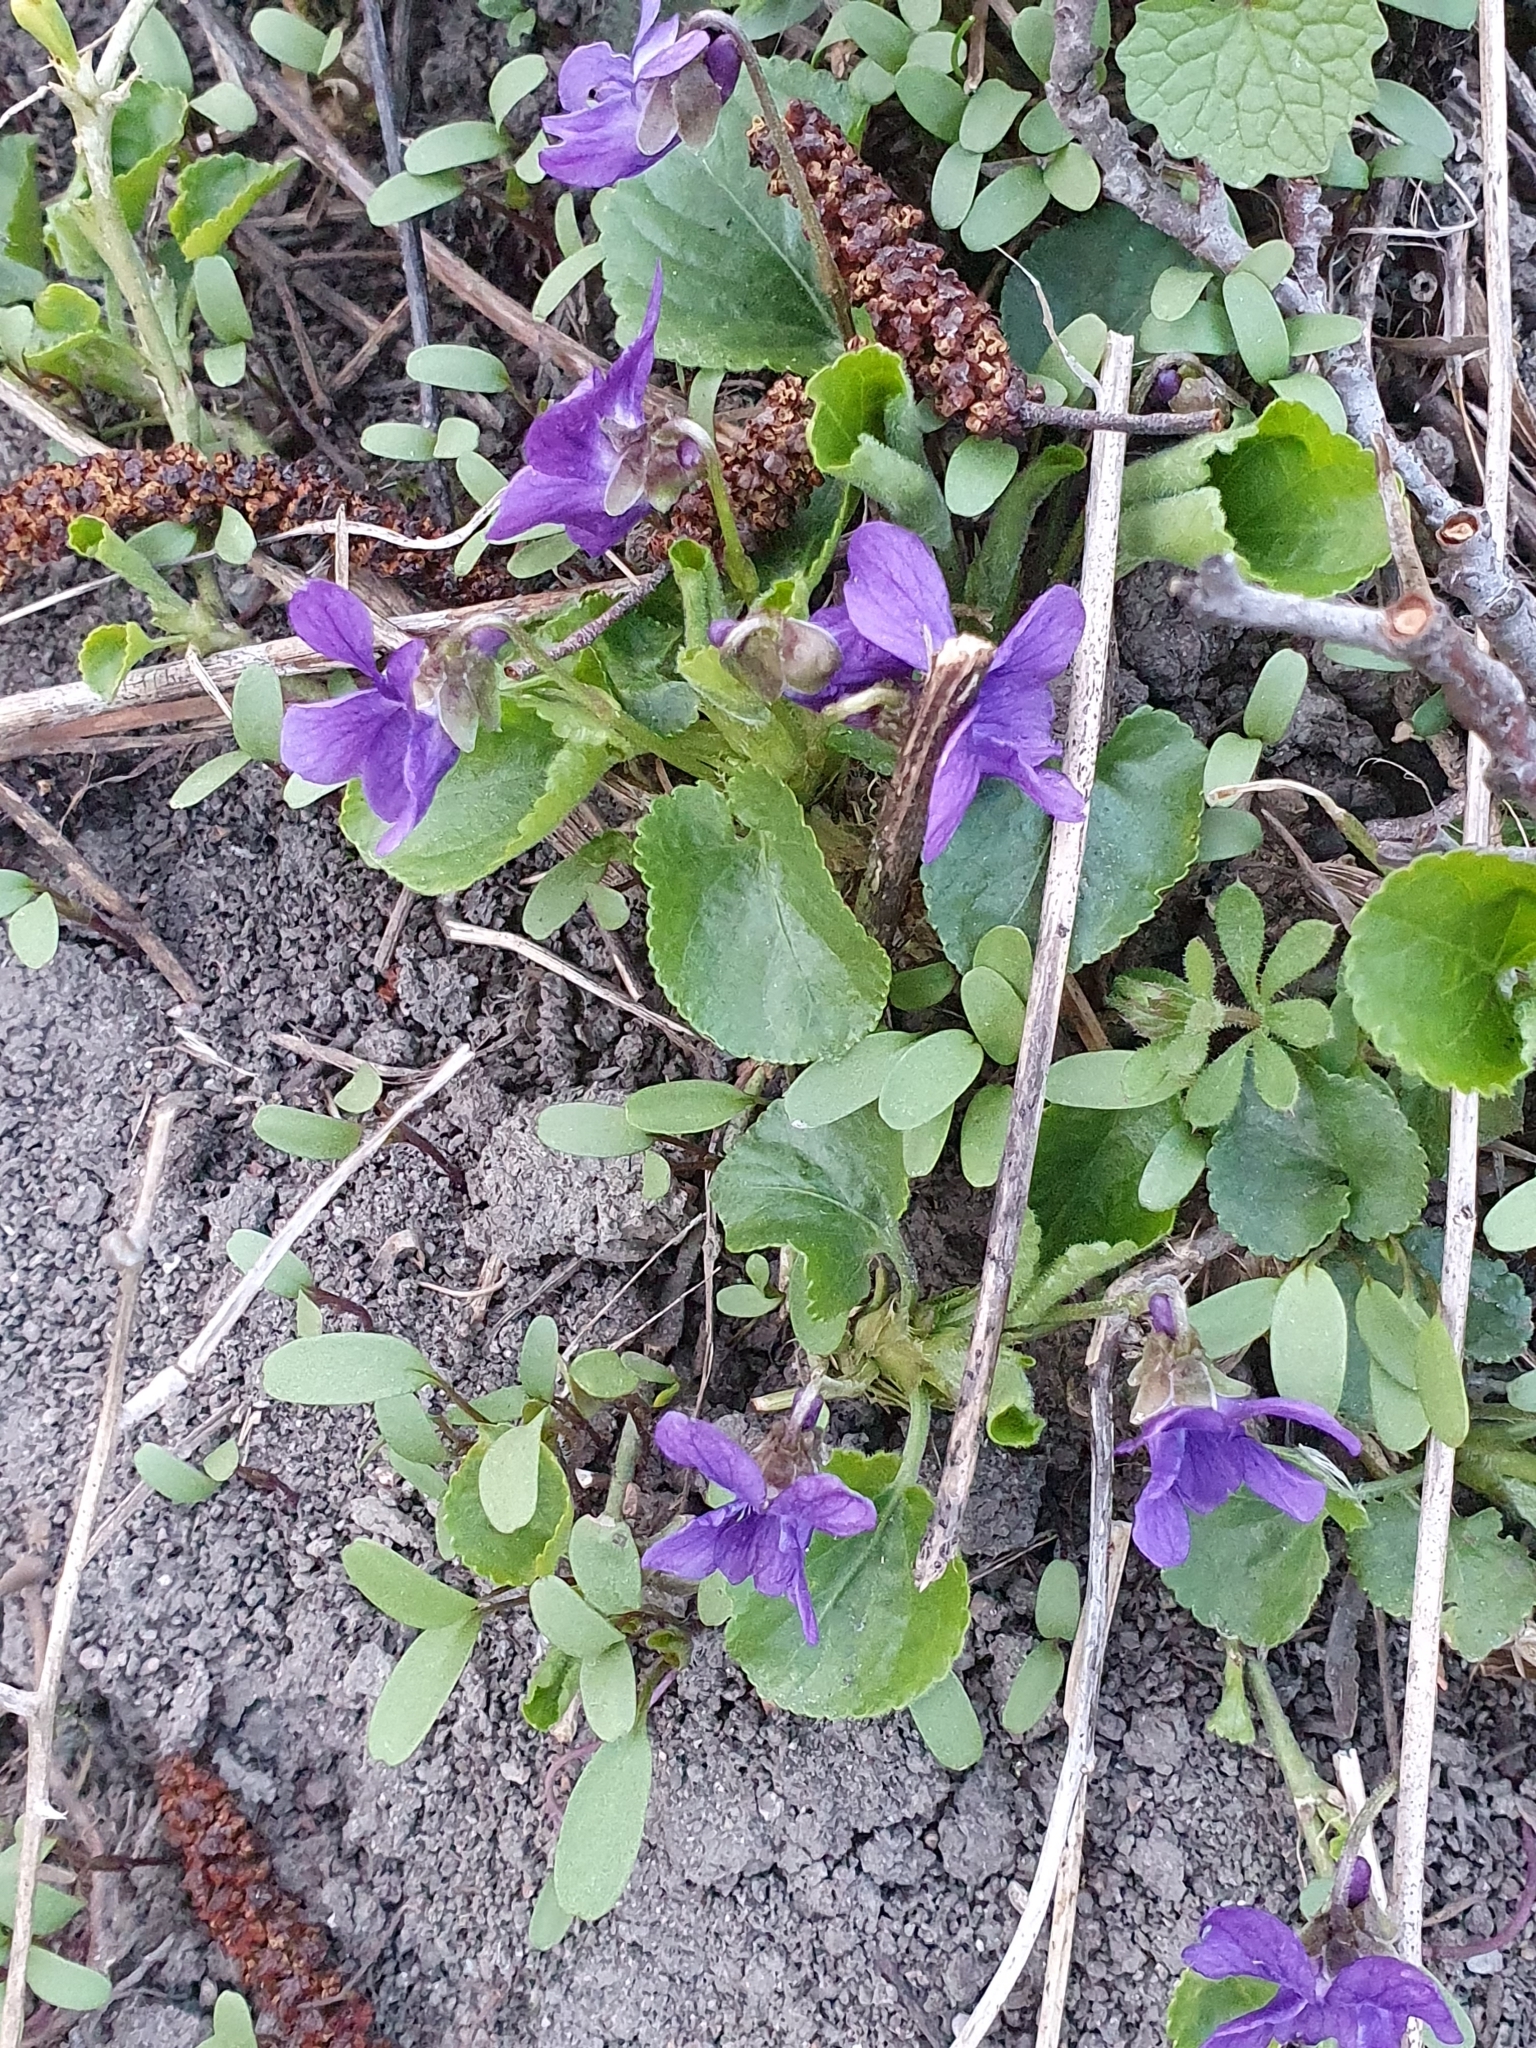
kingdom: Plantae
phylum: Tracheophyta
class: Magnoliopsida
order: Malpighiales
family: Violaceae
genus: Viola
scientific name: Viola odorata
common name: Sweet violet
